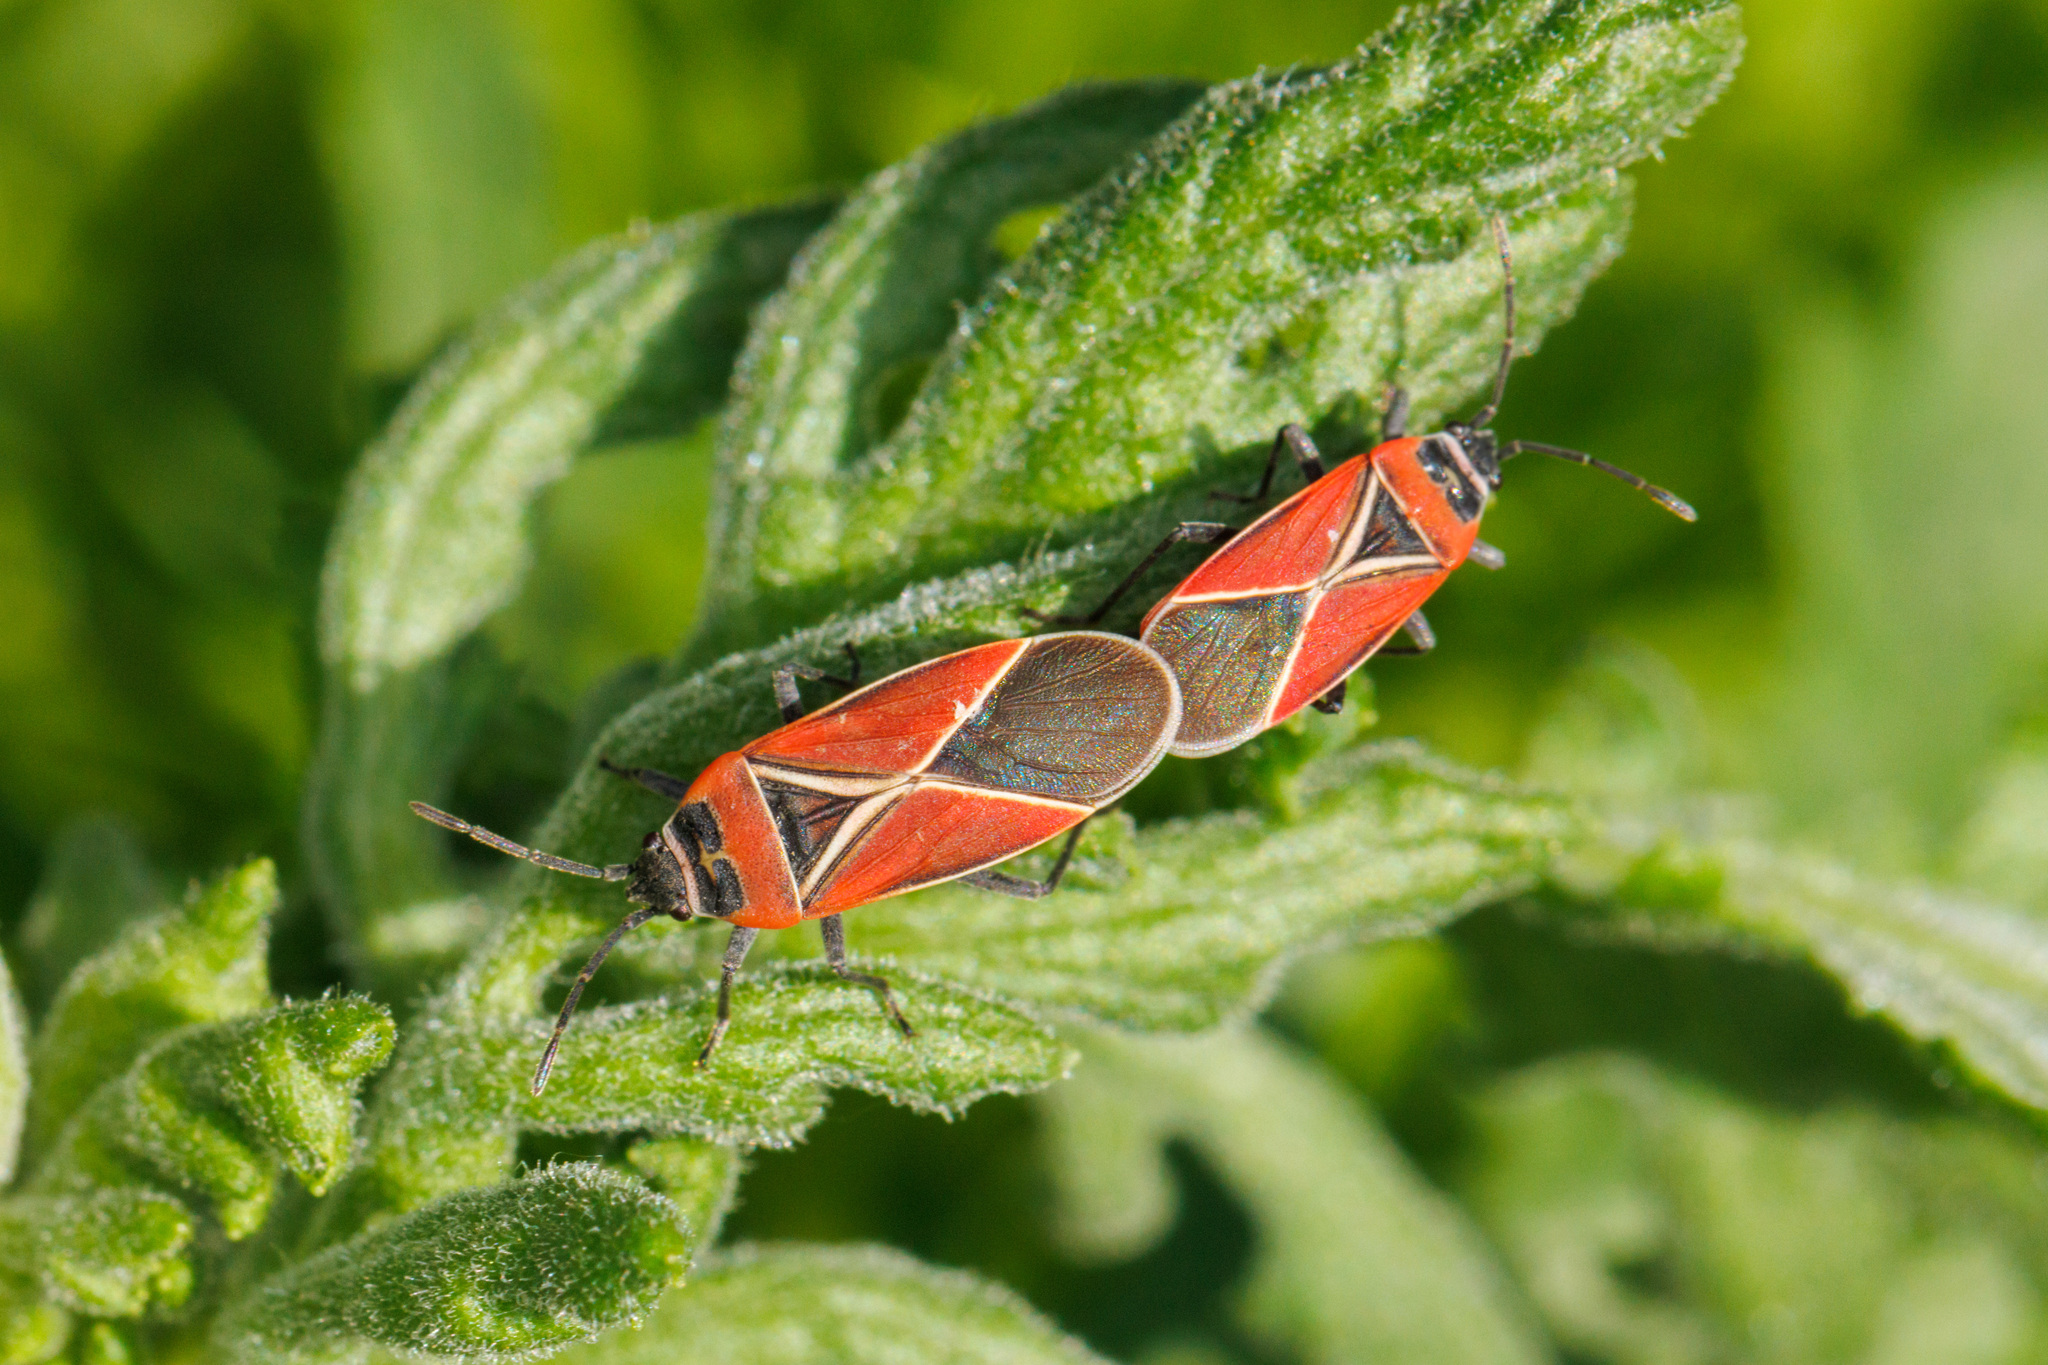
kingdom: Animalia
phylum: Arthropoda
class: Insecta
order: Hemiptera
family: Lygaeidae
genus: Neacoryphus
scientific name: Neacoryphus bicrucis
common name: Lygaeid bug
